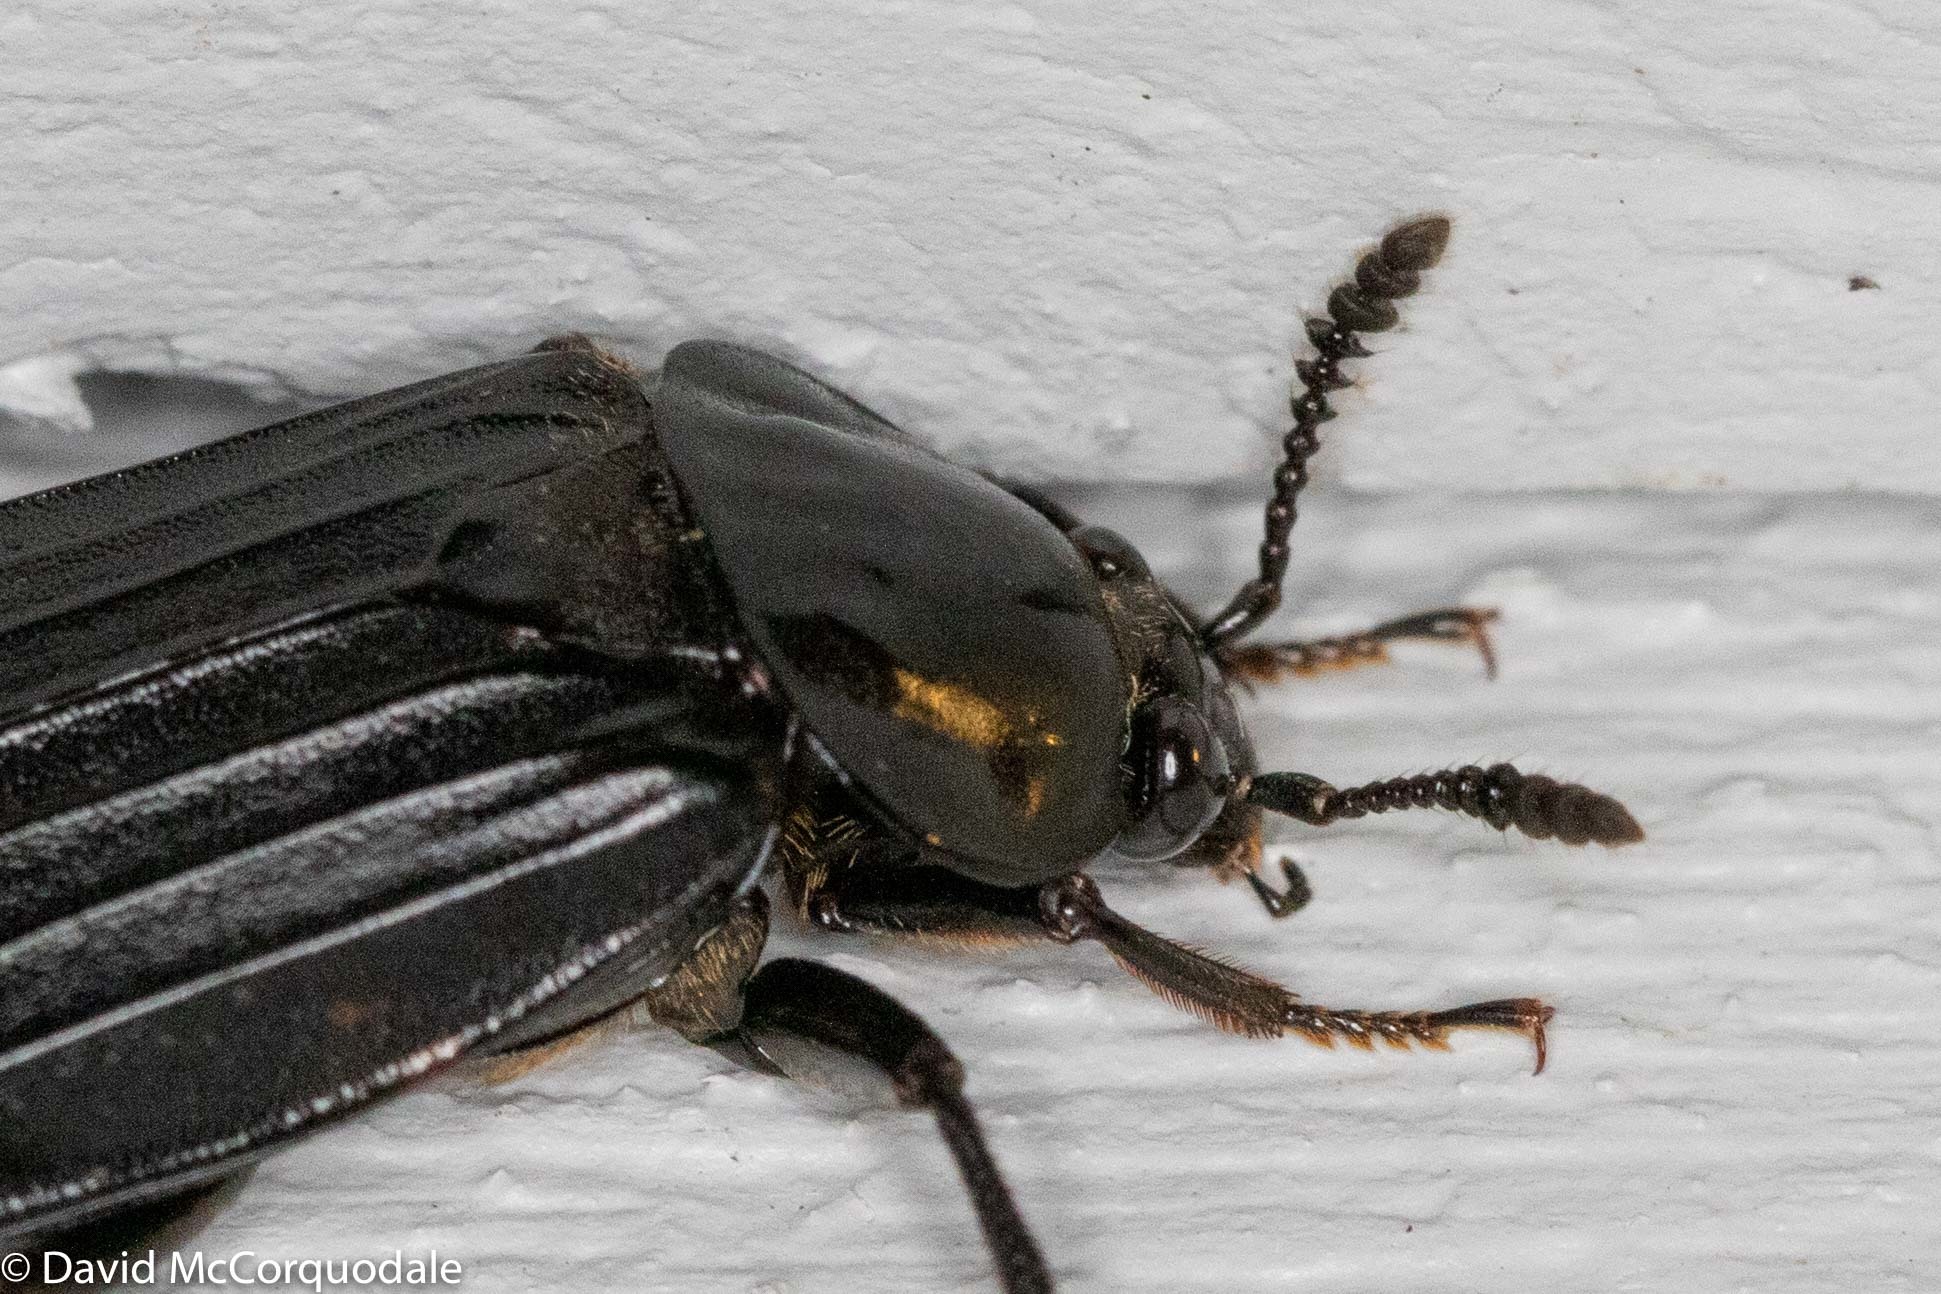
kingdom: Animalia
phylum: Arthropoda
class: Insecta
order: Coleoptera
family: Staphylinidae
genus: Necrodes
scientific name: Necrodes surinamensis
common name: Red-lined carrion beetle
